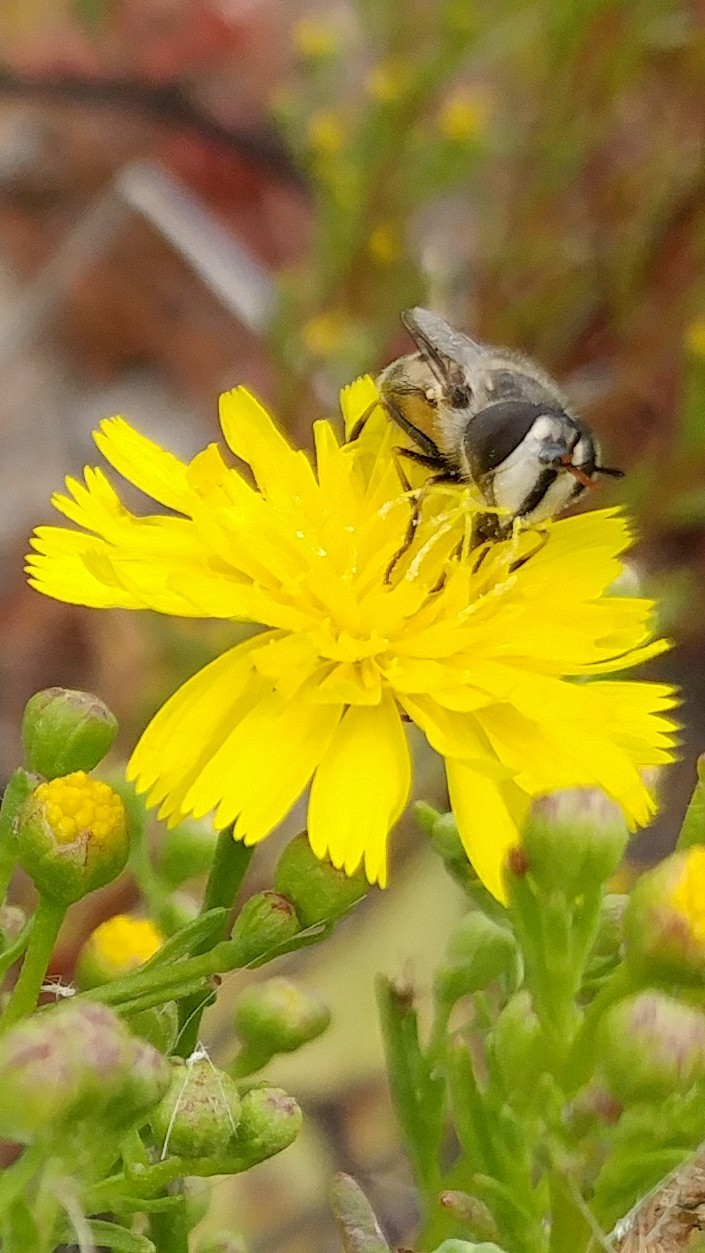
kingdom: Animalia
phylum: Arthropoda
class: Insecta
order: Diptera
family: Syrphidae
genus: Copestylum
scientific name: Copestylum lentum
